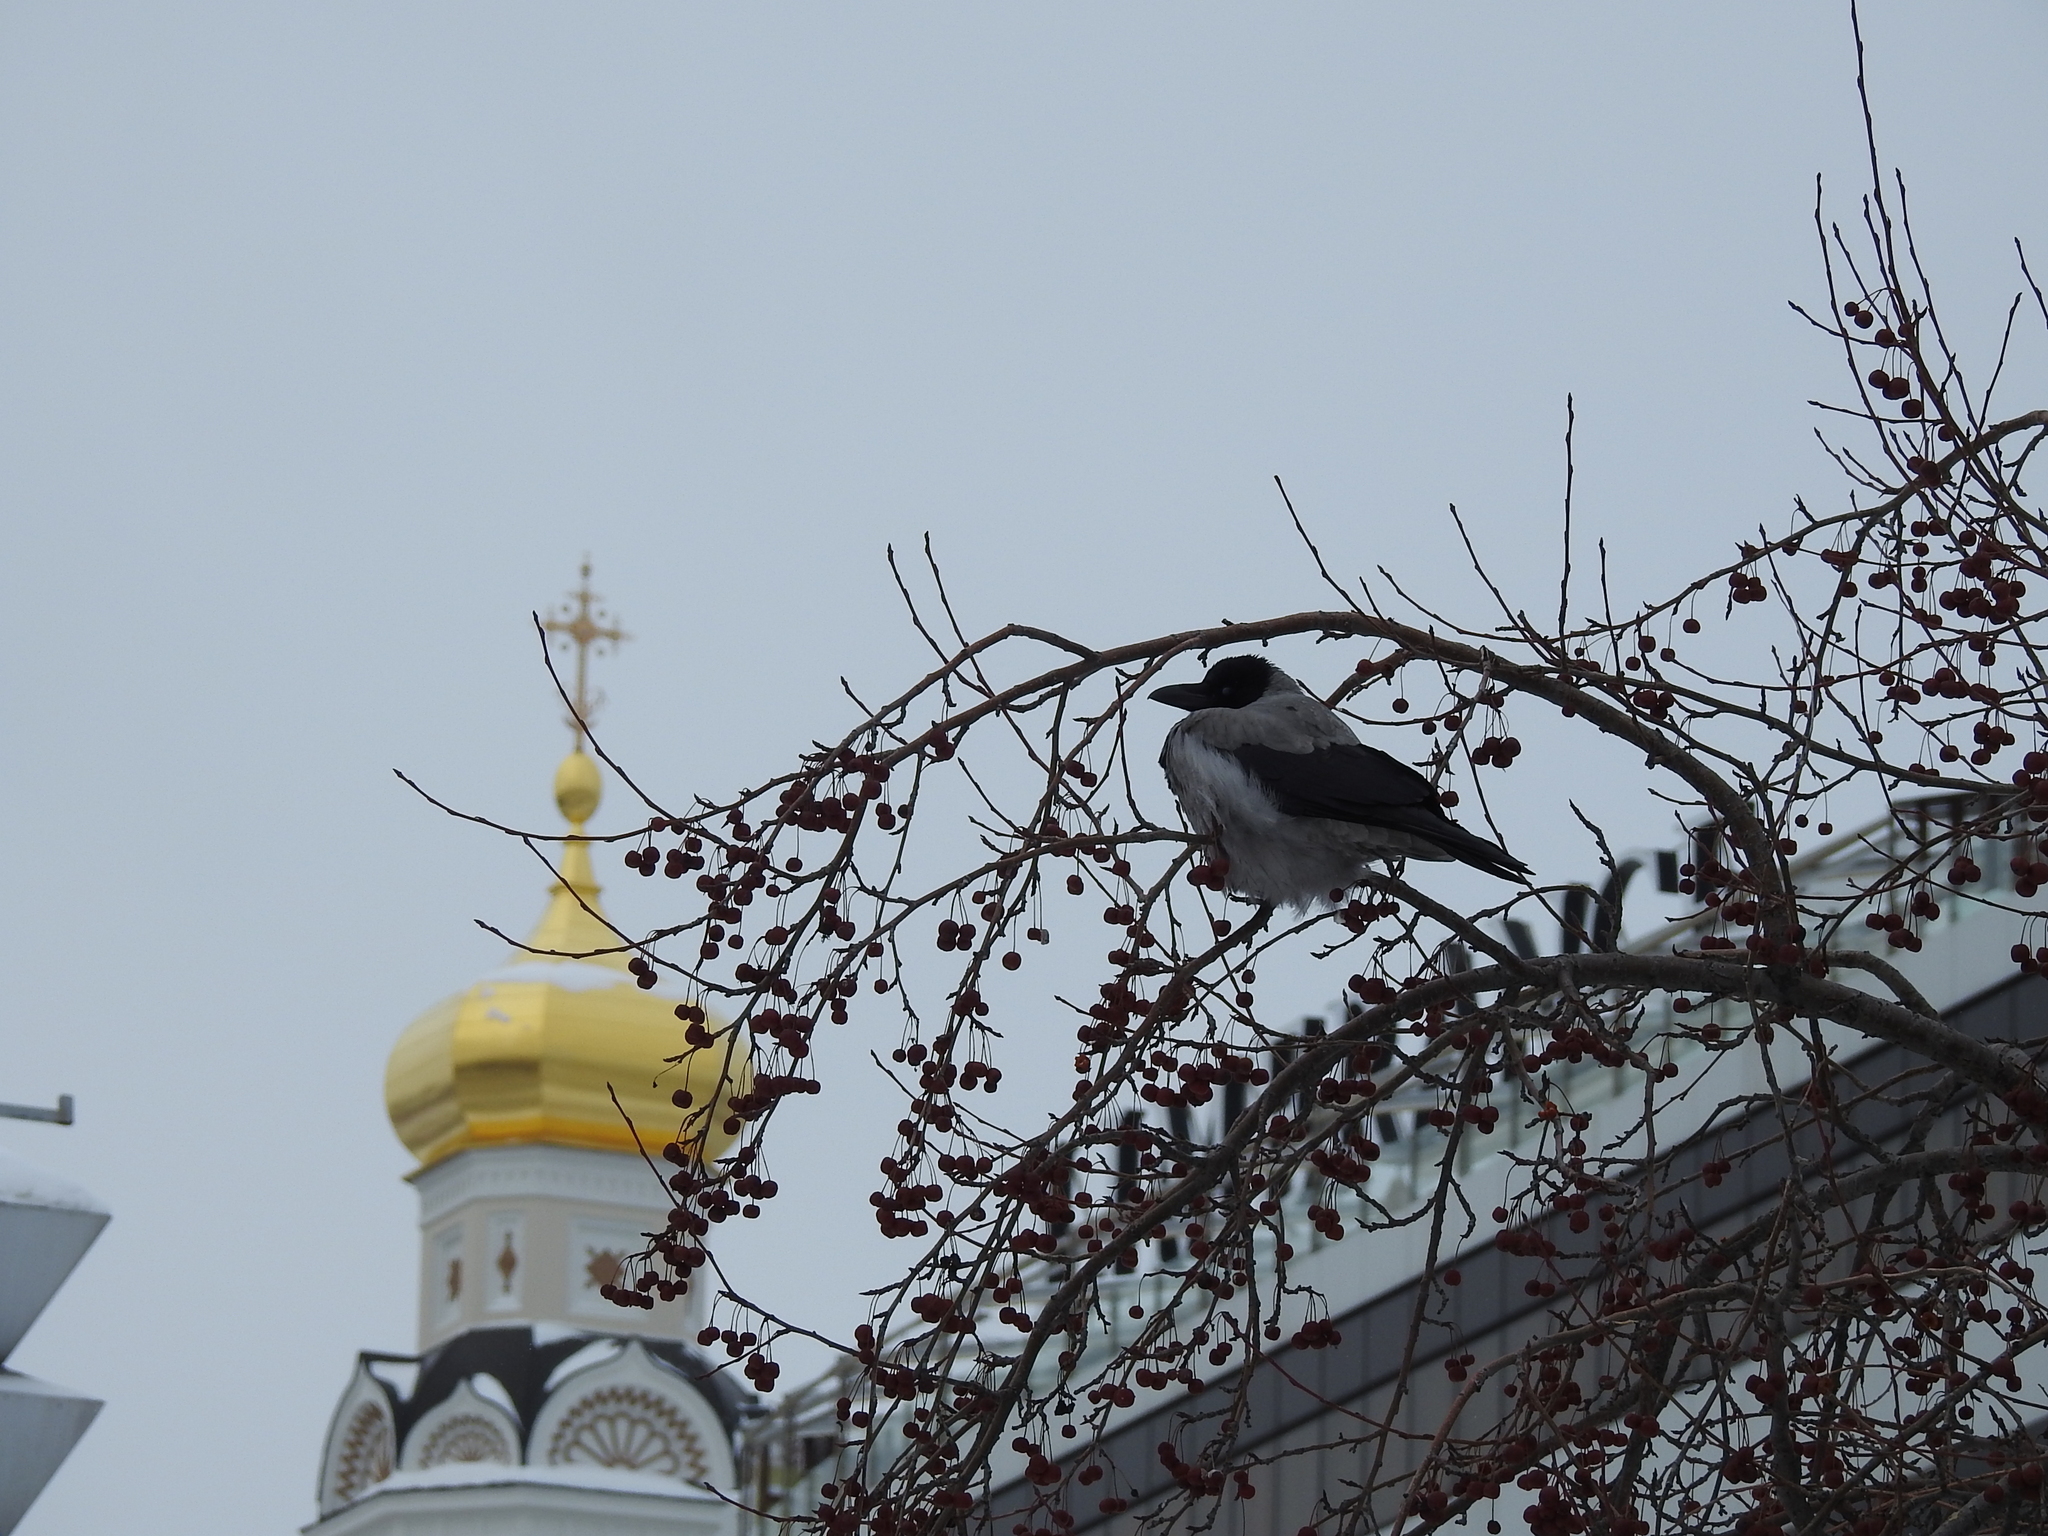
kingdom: Animalia
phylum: Chordata
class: Aves
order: Passeriformes
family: Corvidae
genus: Corvus
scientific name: Corvus cornix
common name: Hooded crow
